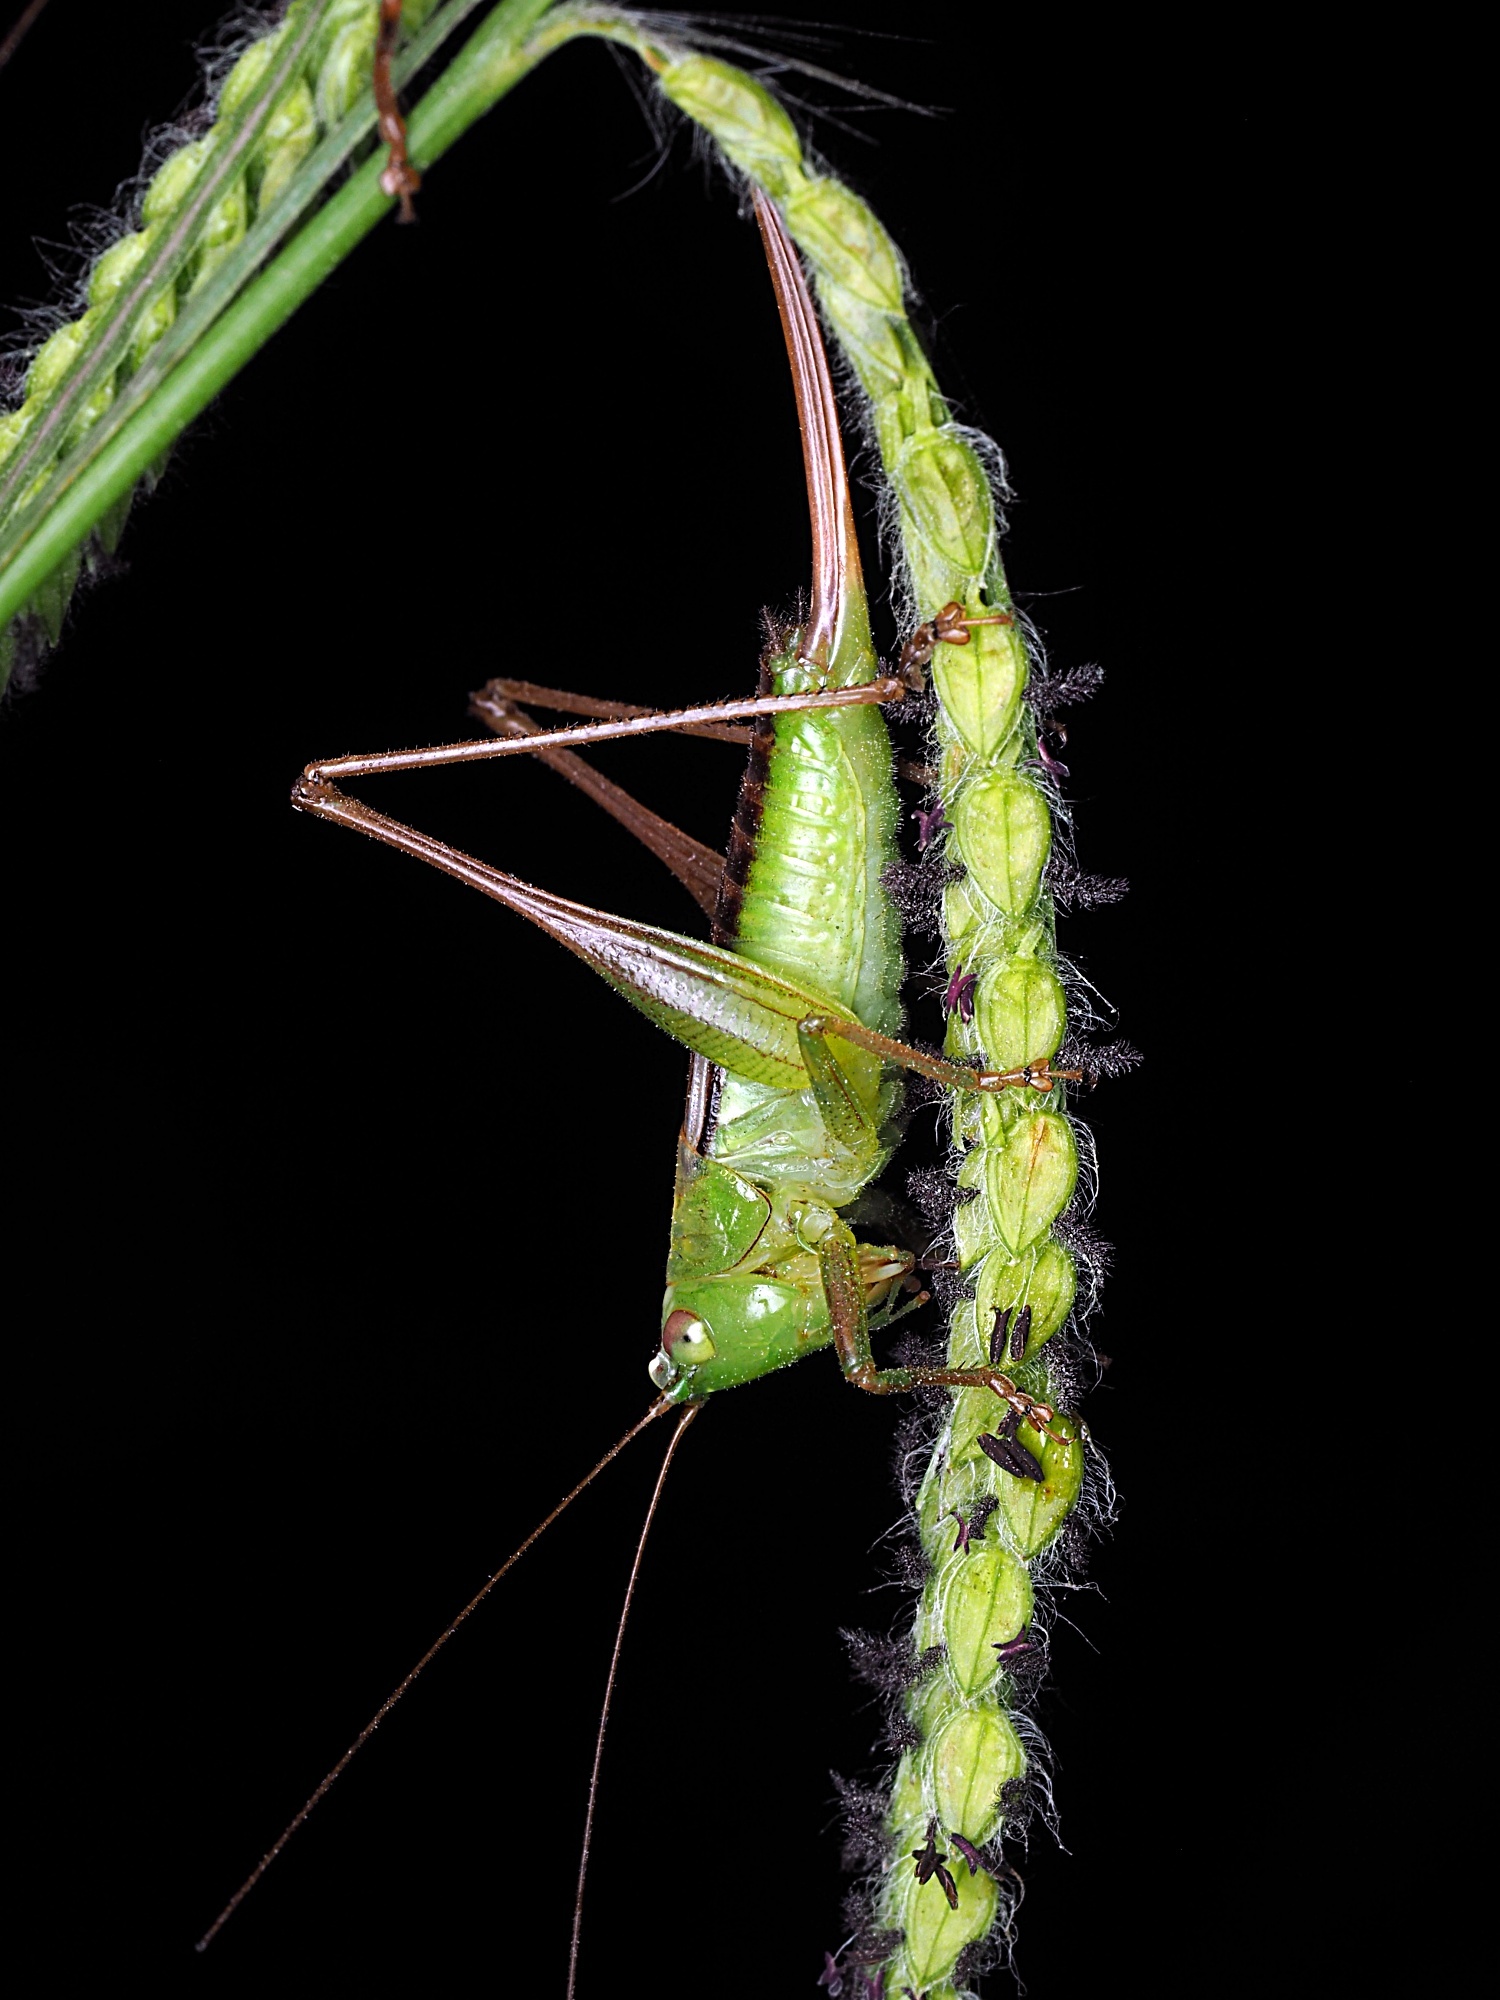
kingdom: Animalia
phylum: Arthropoda
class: Insecta
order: Orthoptera
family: Tettigoniidae
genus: Conocephalus
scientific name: Conocephalus semivittatus
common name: Blackish meadow katydid
